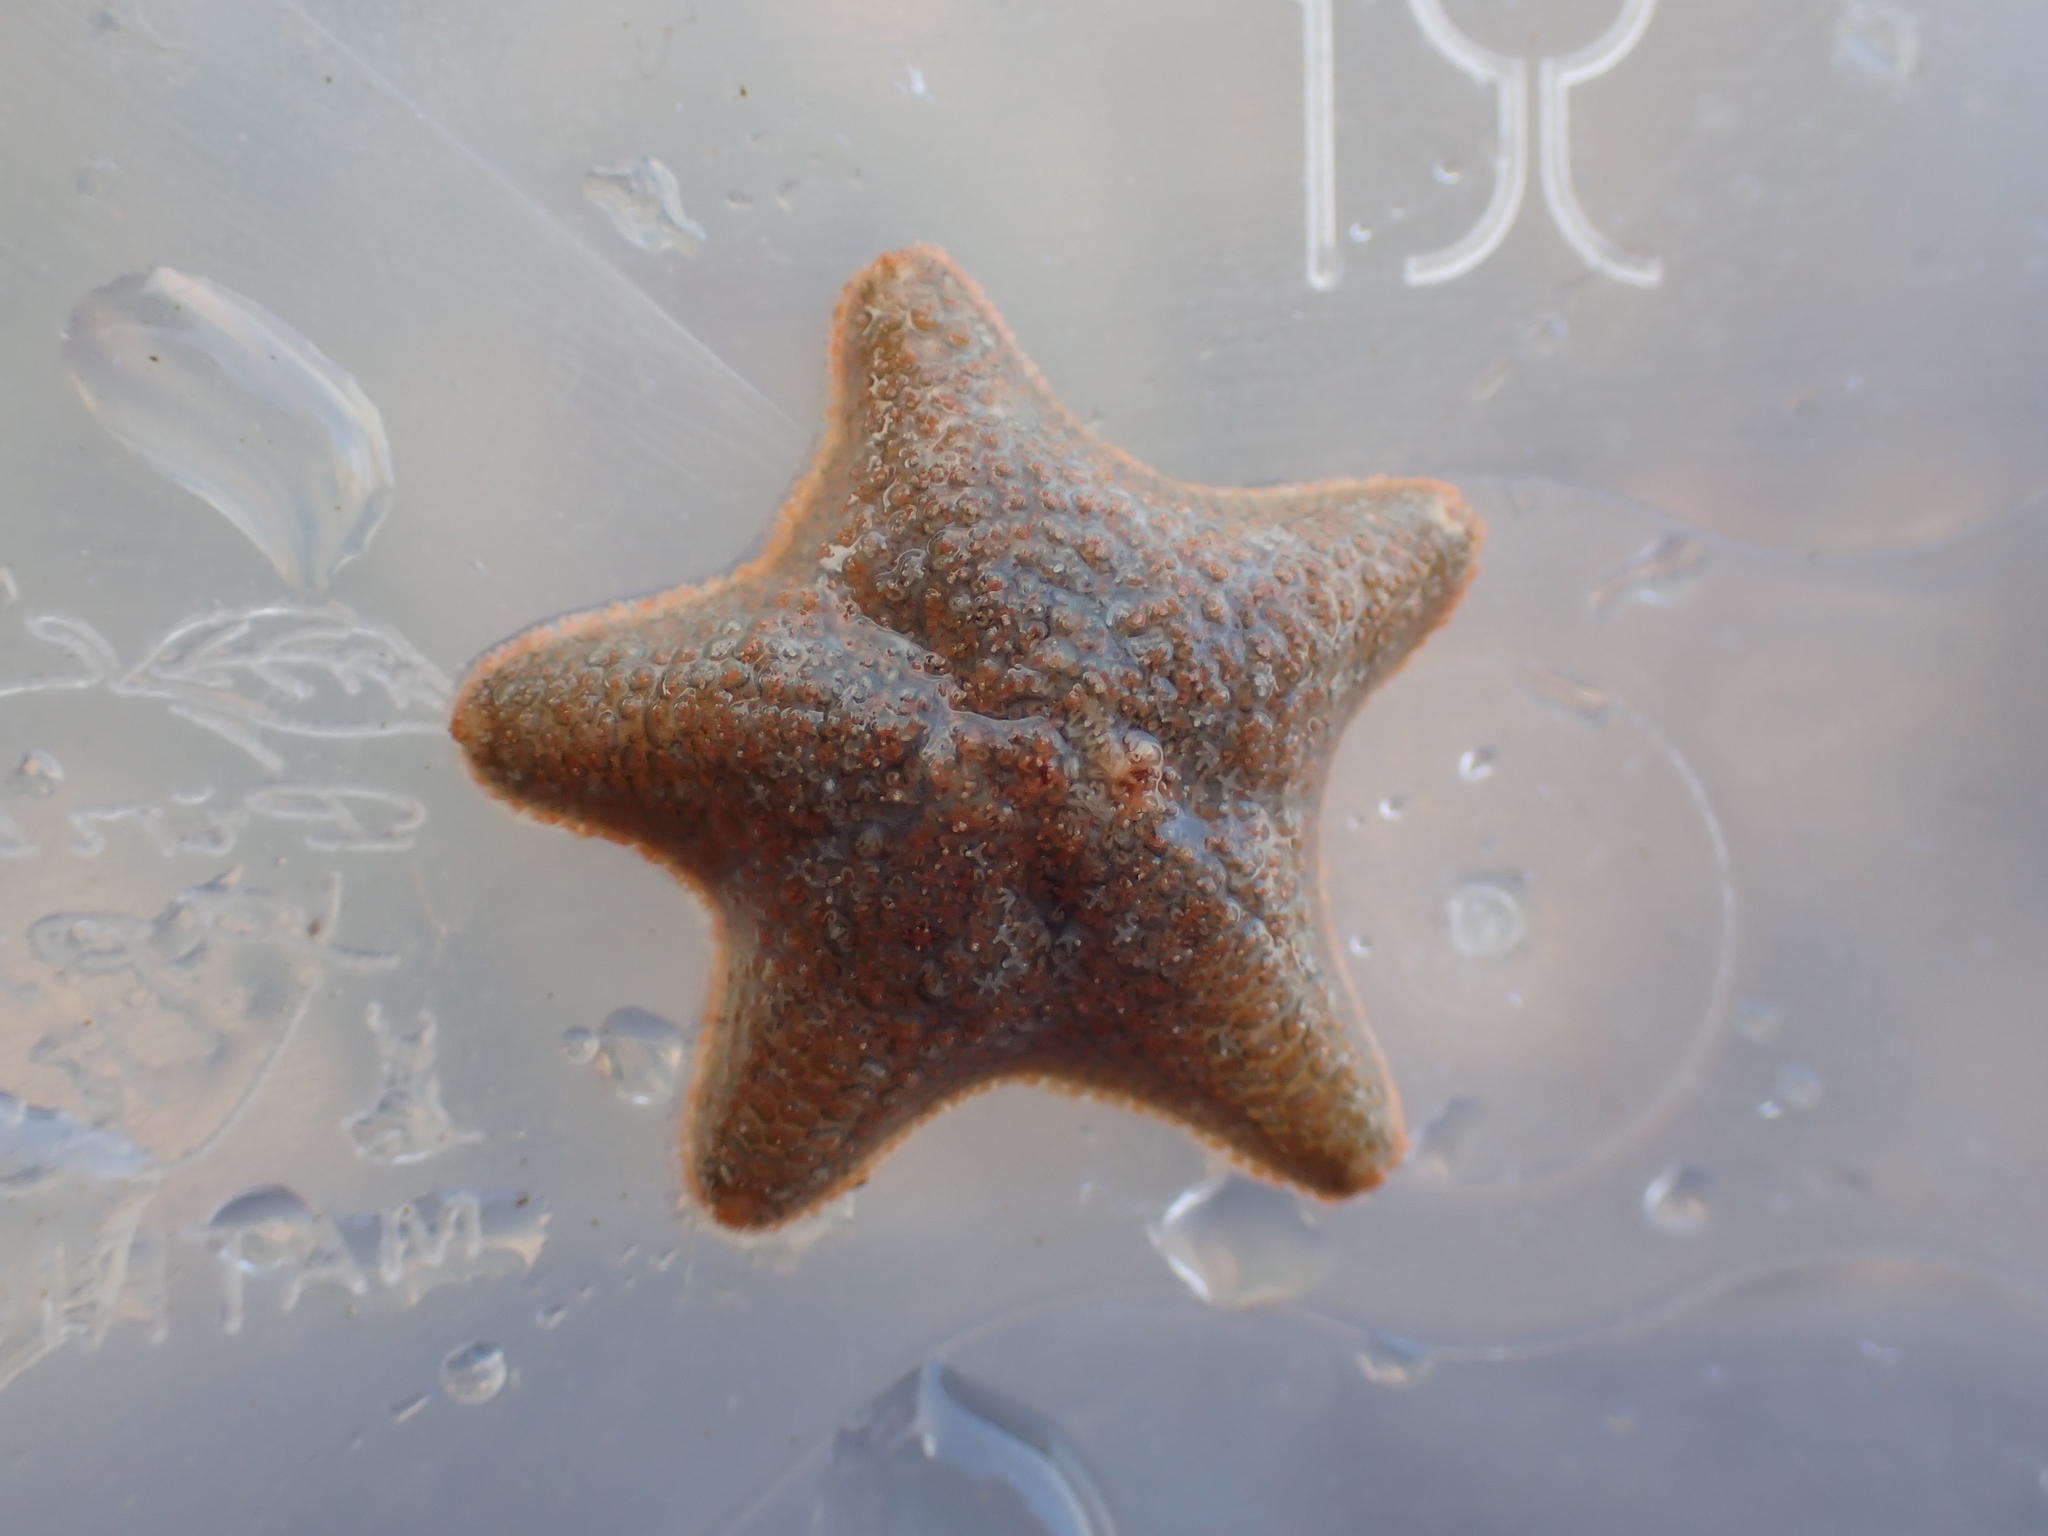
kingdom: Animalia
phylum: Echinodermata
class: Asteroidea
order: Valvatida
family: Asterinidae
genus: Asterina
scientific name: Asterina gibbosa
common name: Cushion star
